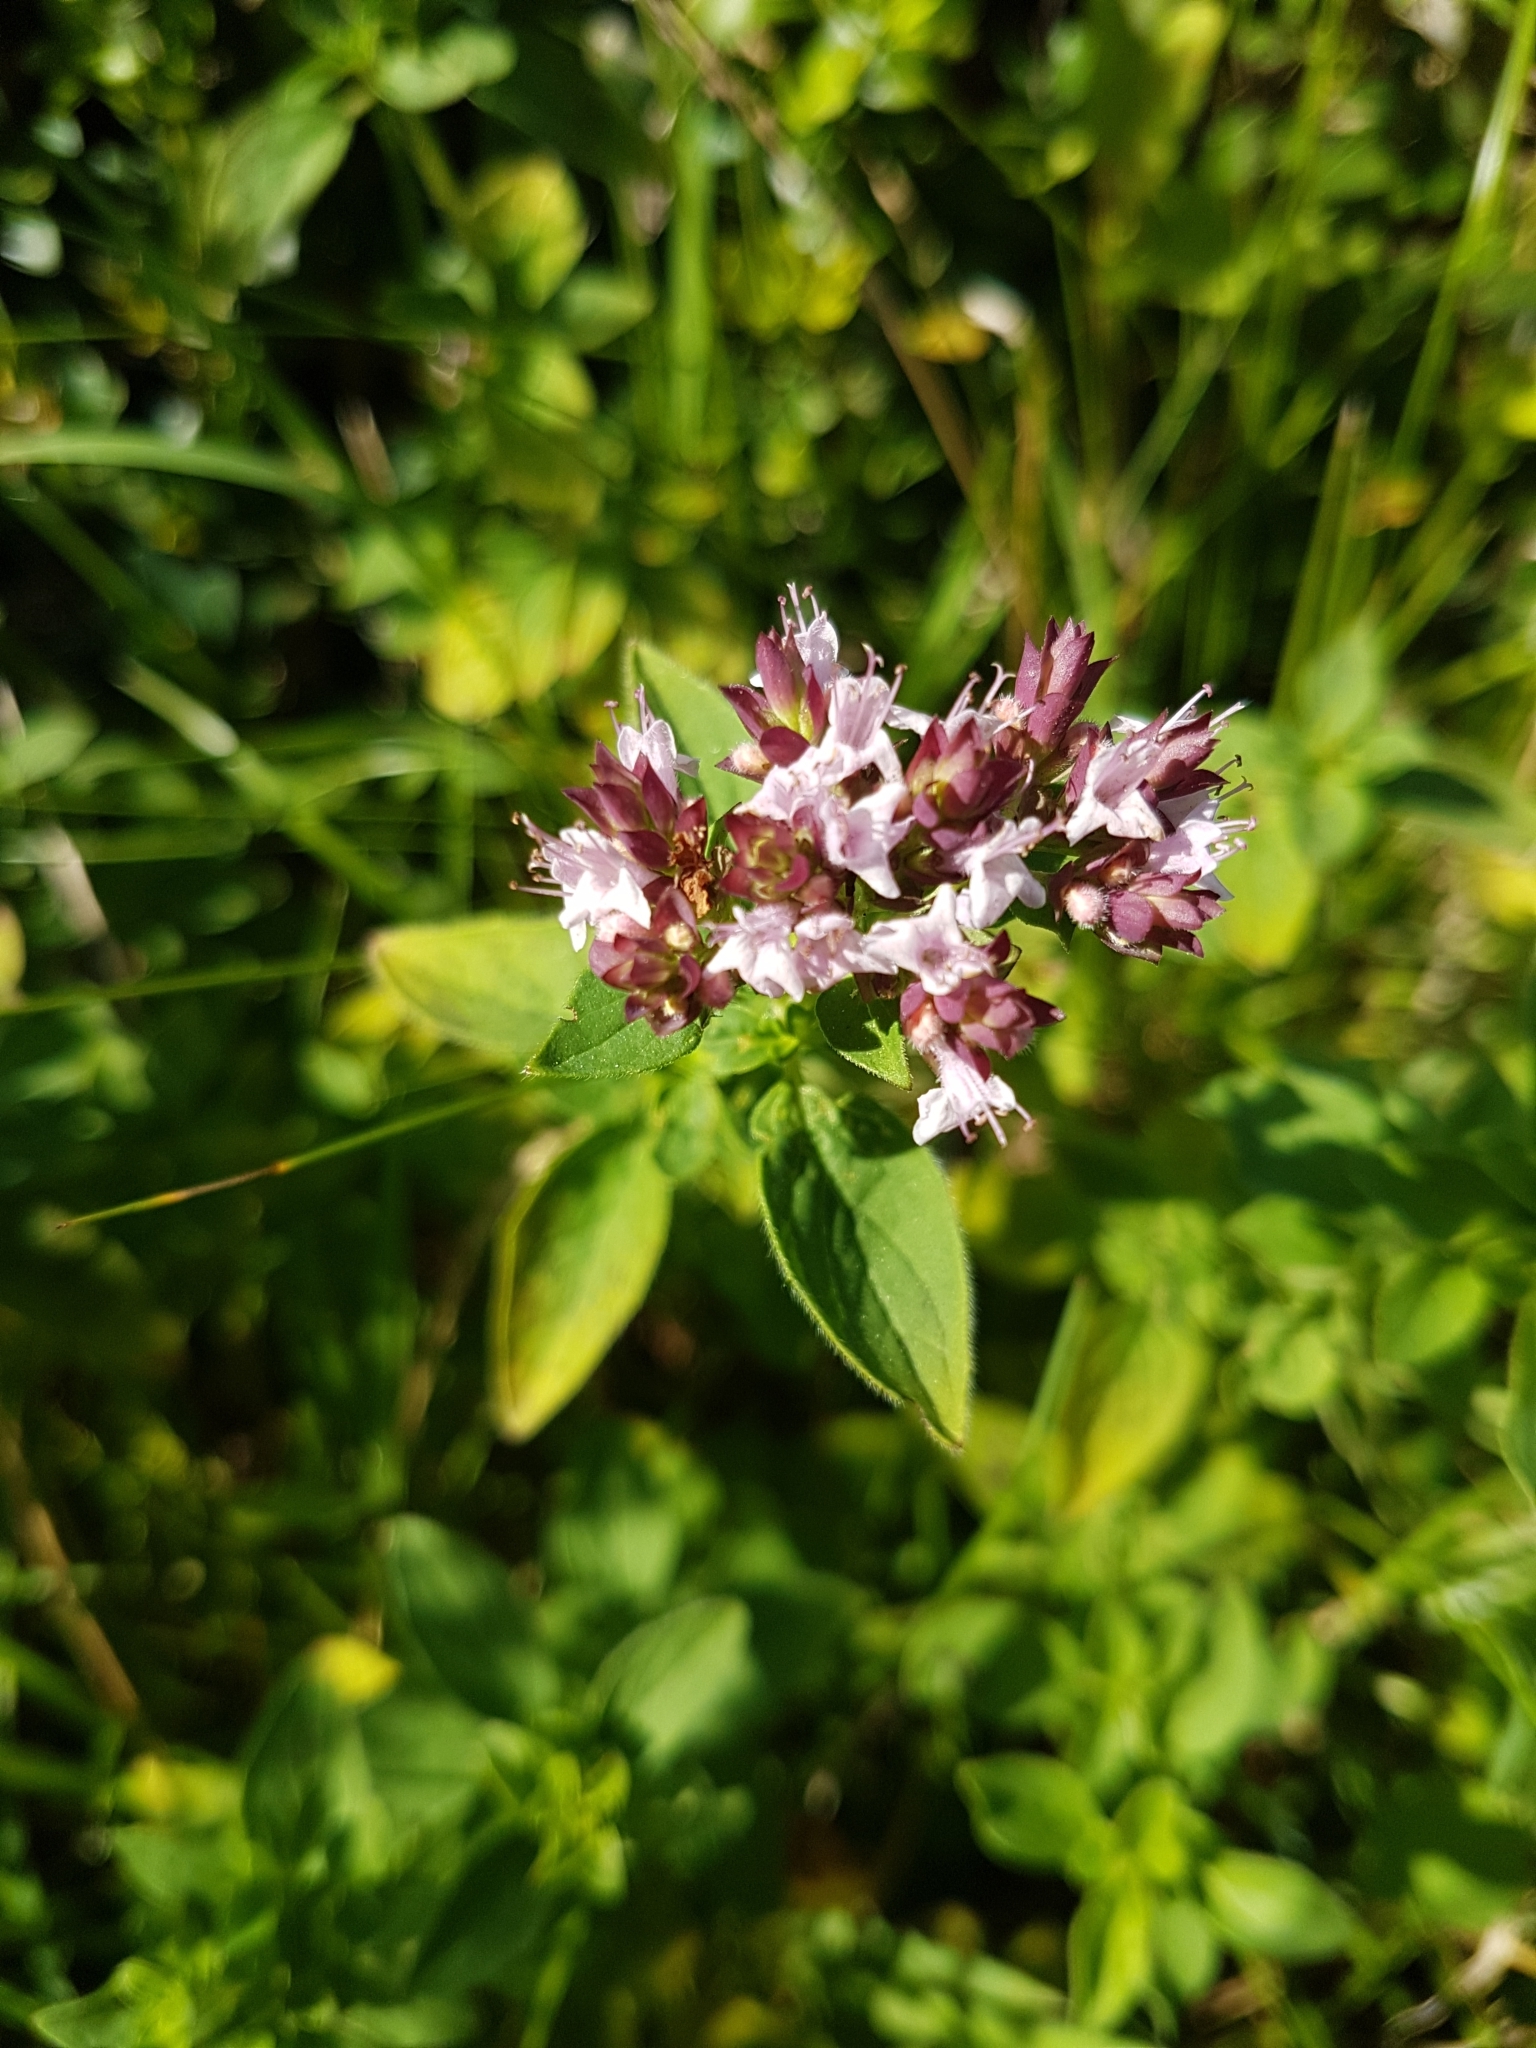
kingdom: Plantae
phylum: Tracheophyta
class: Magnoliopsida
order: Lamiales
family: Lamiaceae
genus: Origanum
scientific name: Origanum vulgare
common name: Wild marjoram
